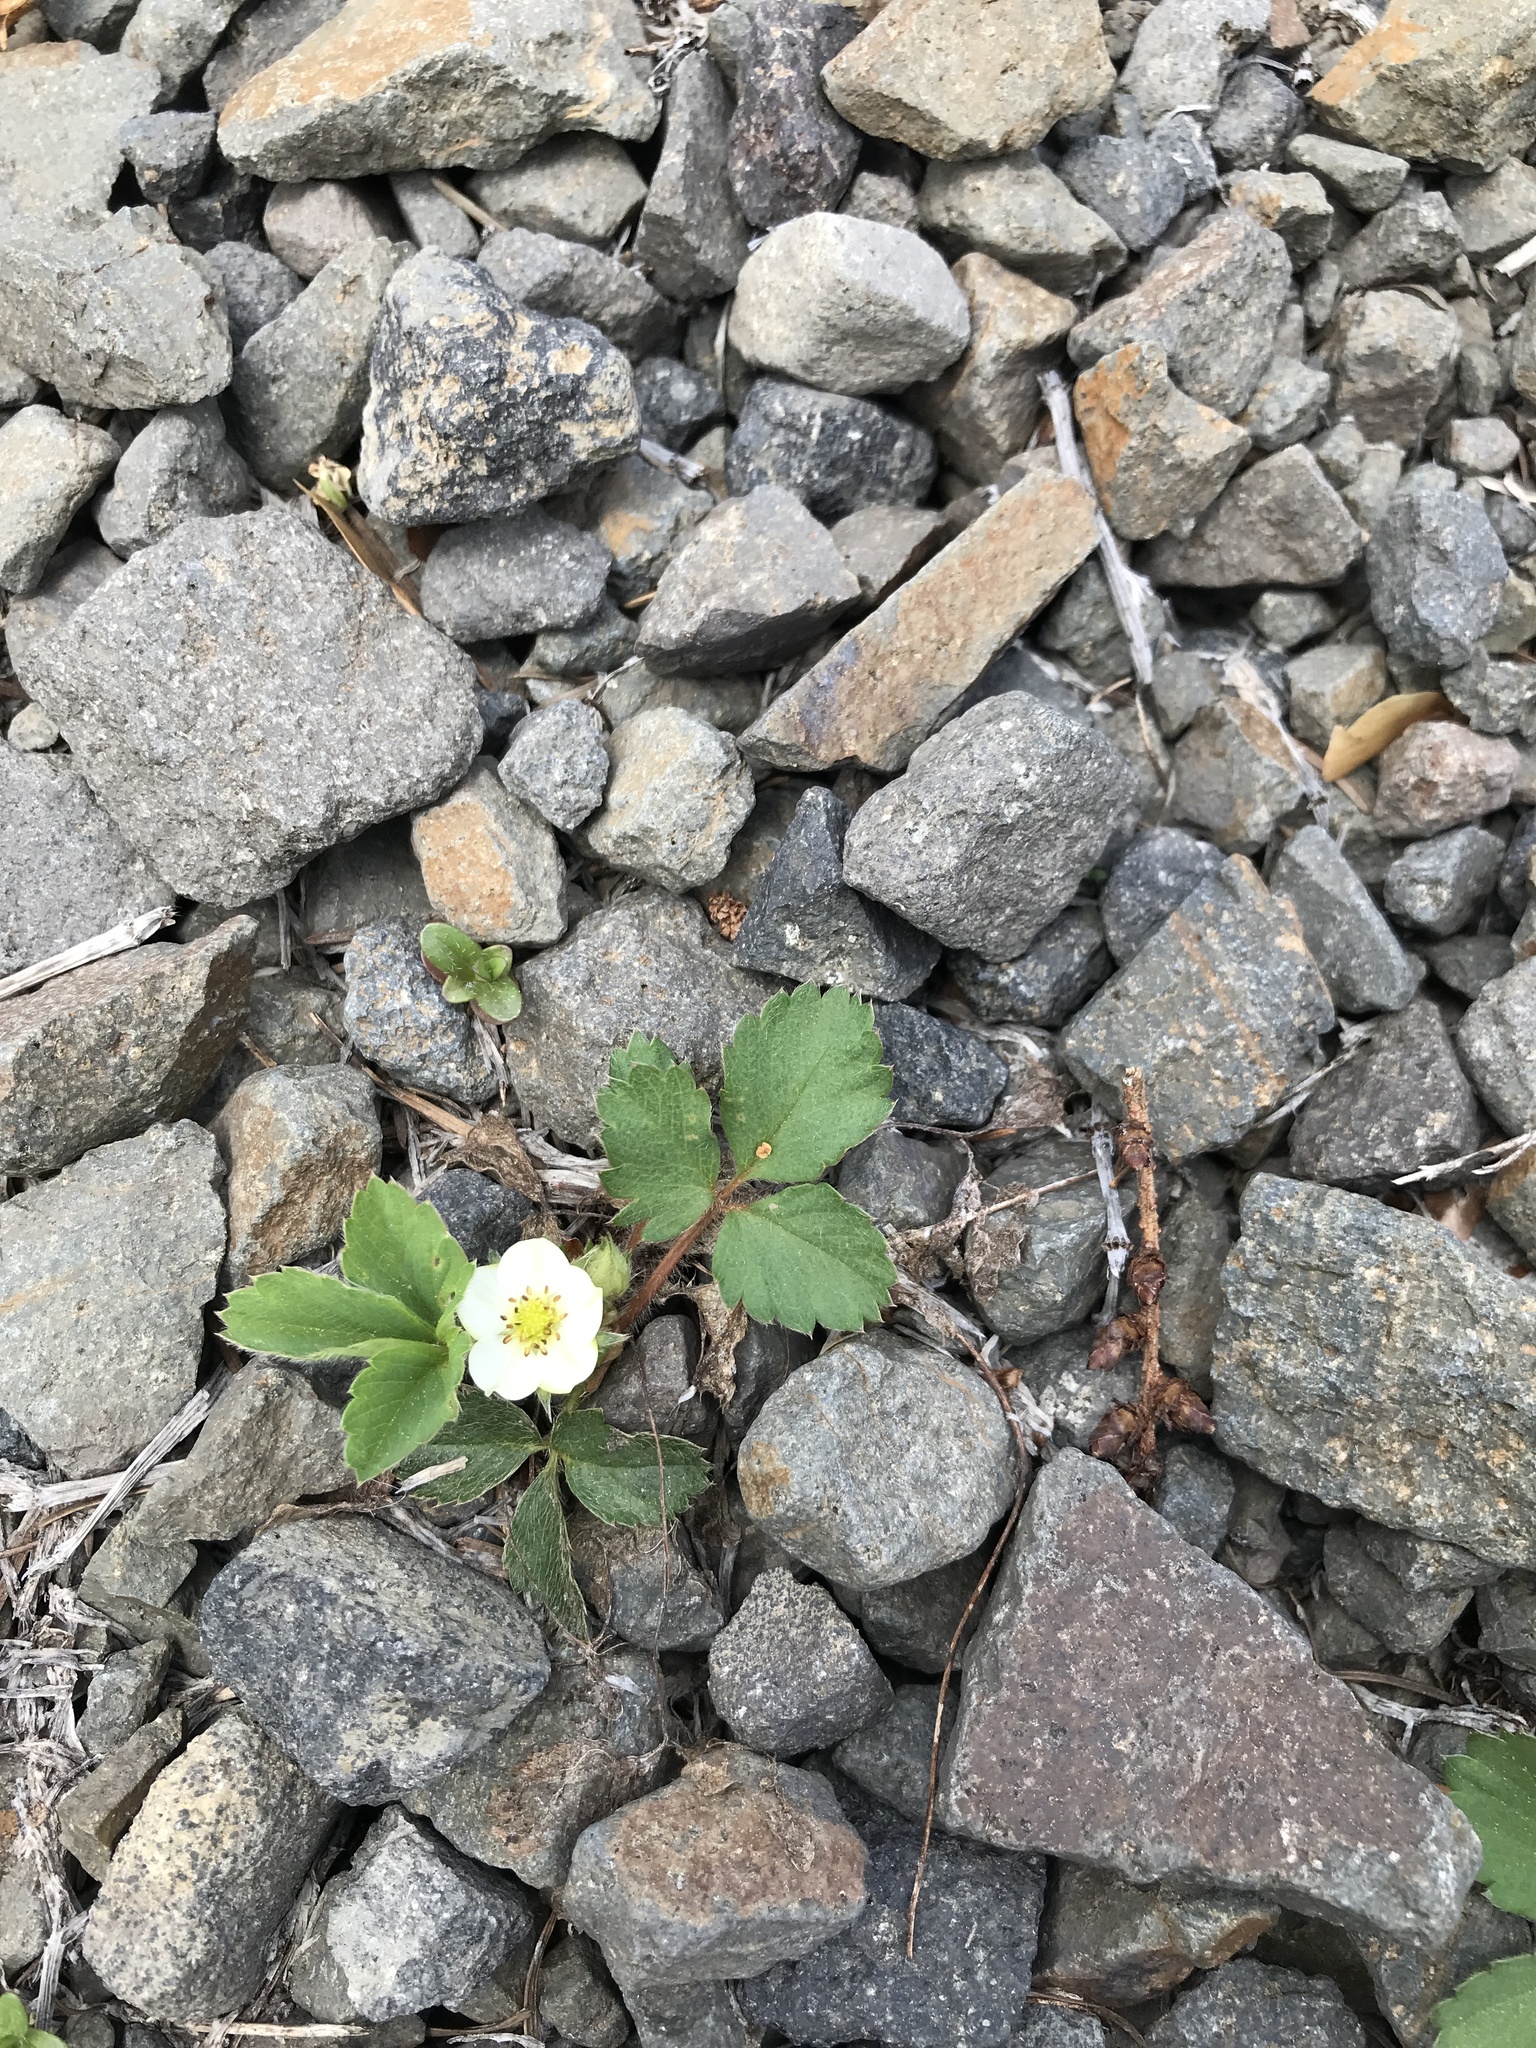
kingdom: Plantae
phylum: Tracheophyta
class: Magnoliopsida
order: Rosales
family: Rosaceae
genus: Fragaria
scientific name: Fragaria cascadensis
